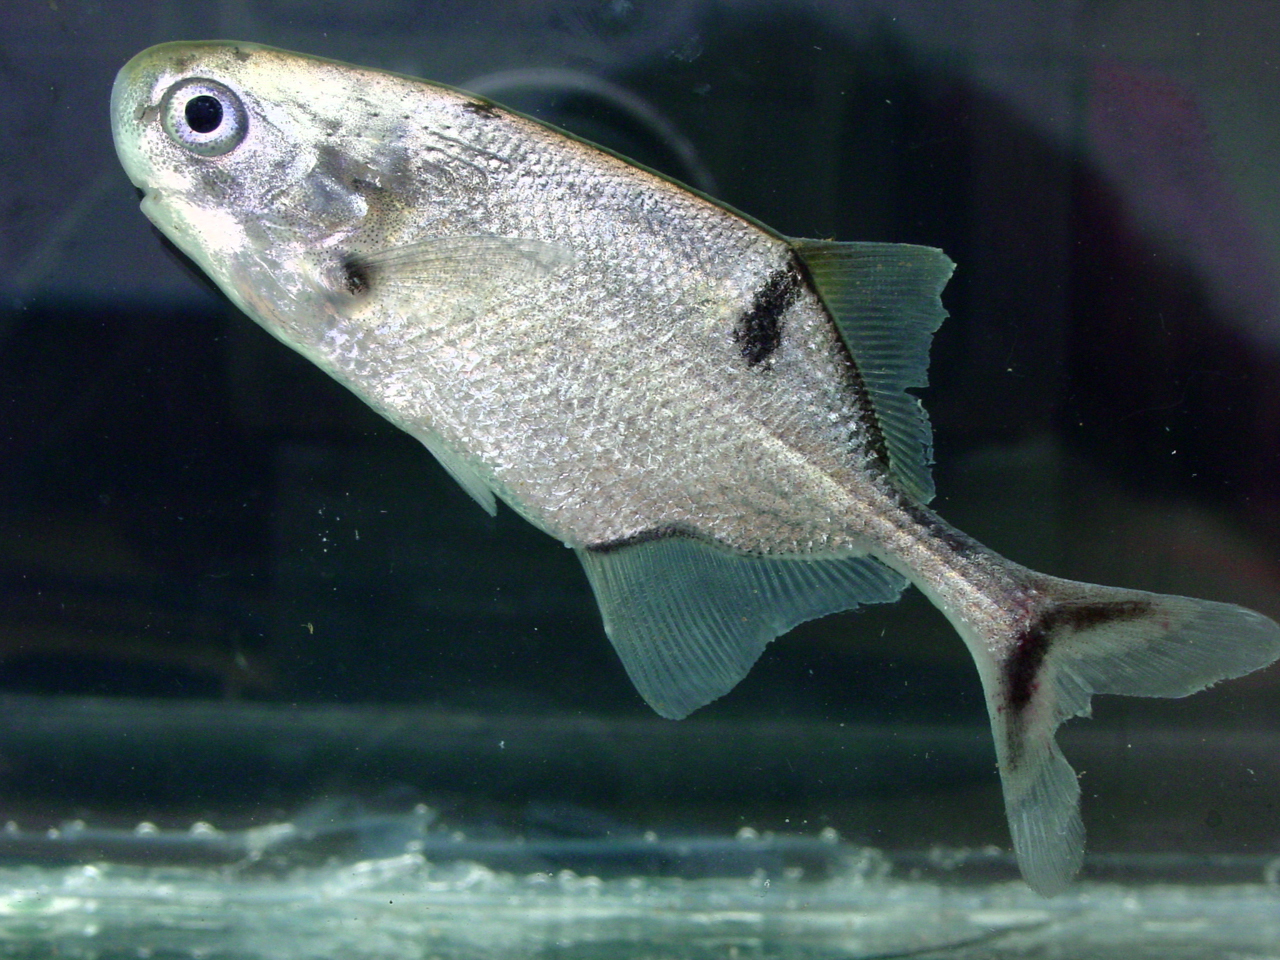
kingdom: Animalia
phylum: Chordata
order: Osteoglossiformes
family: Mormyridae
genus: Petrocephalus
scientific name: Petrocephalus zakoni
